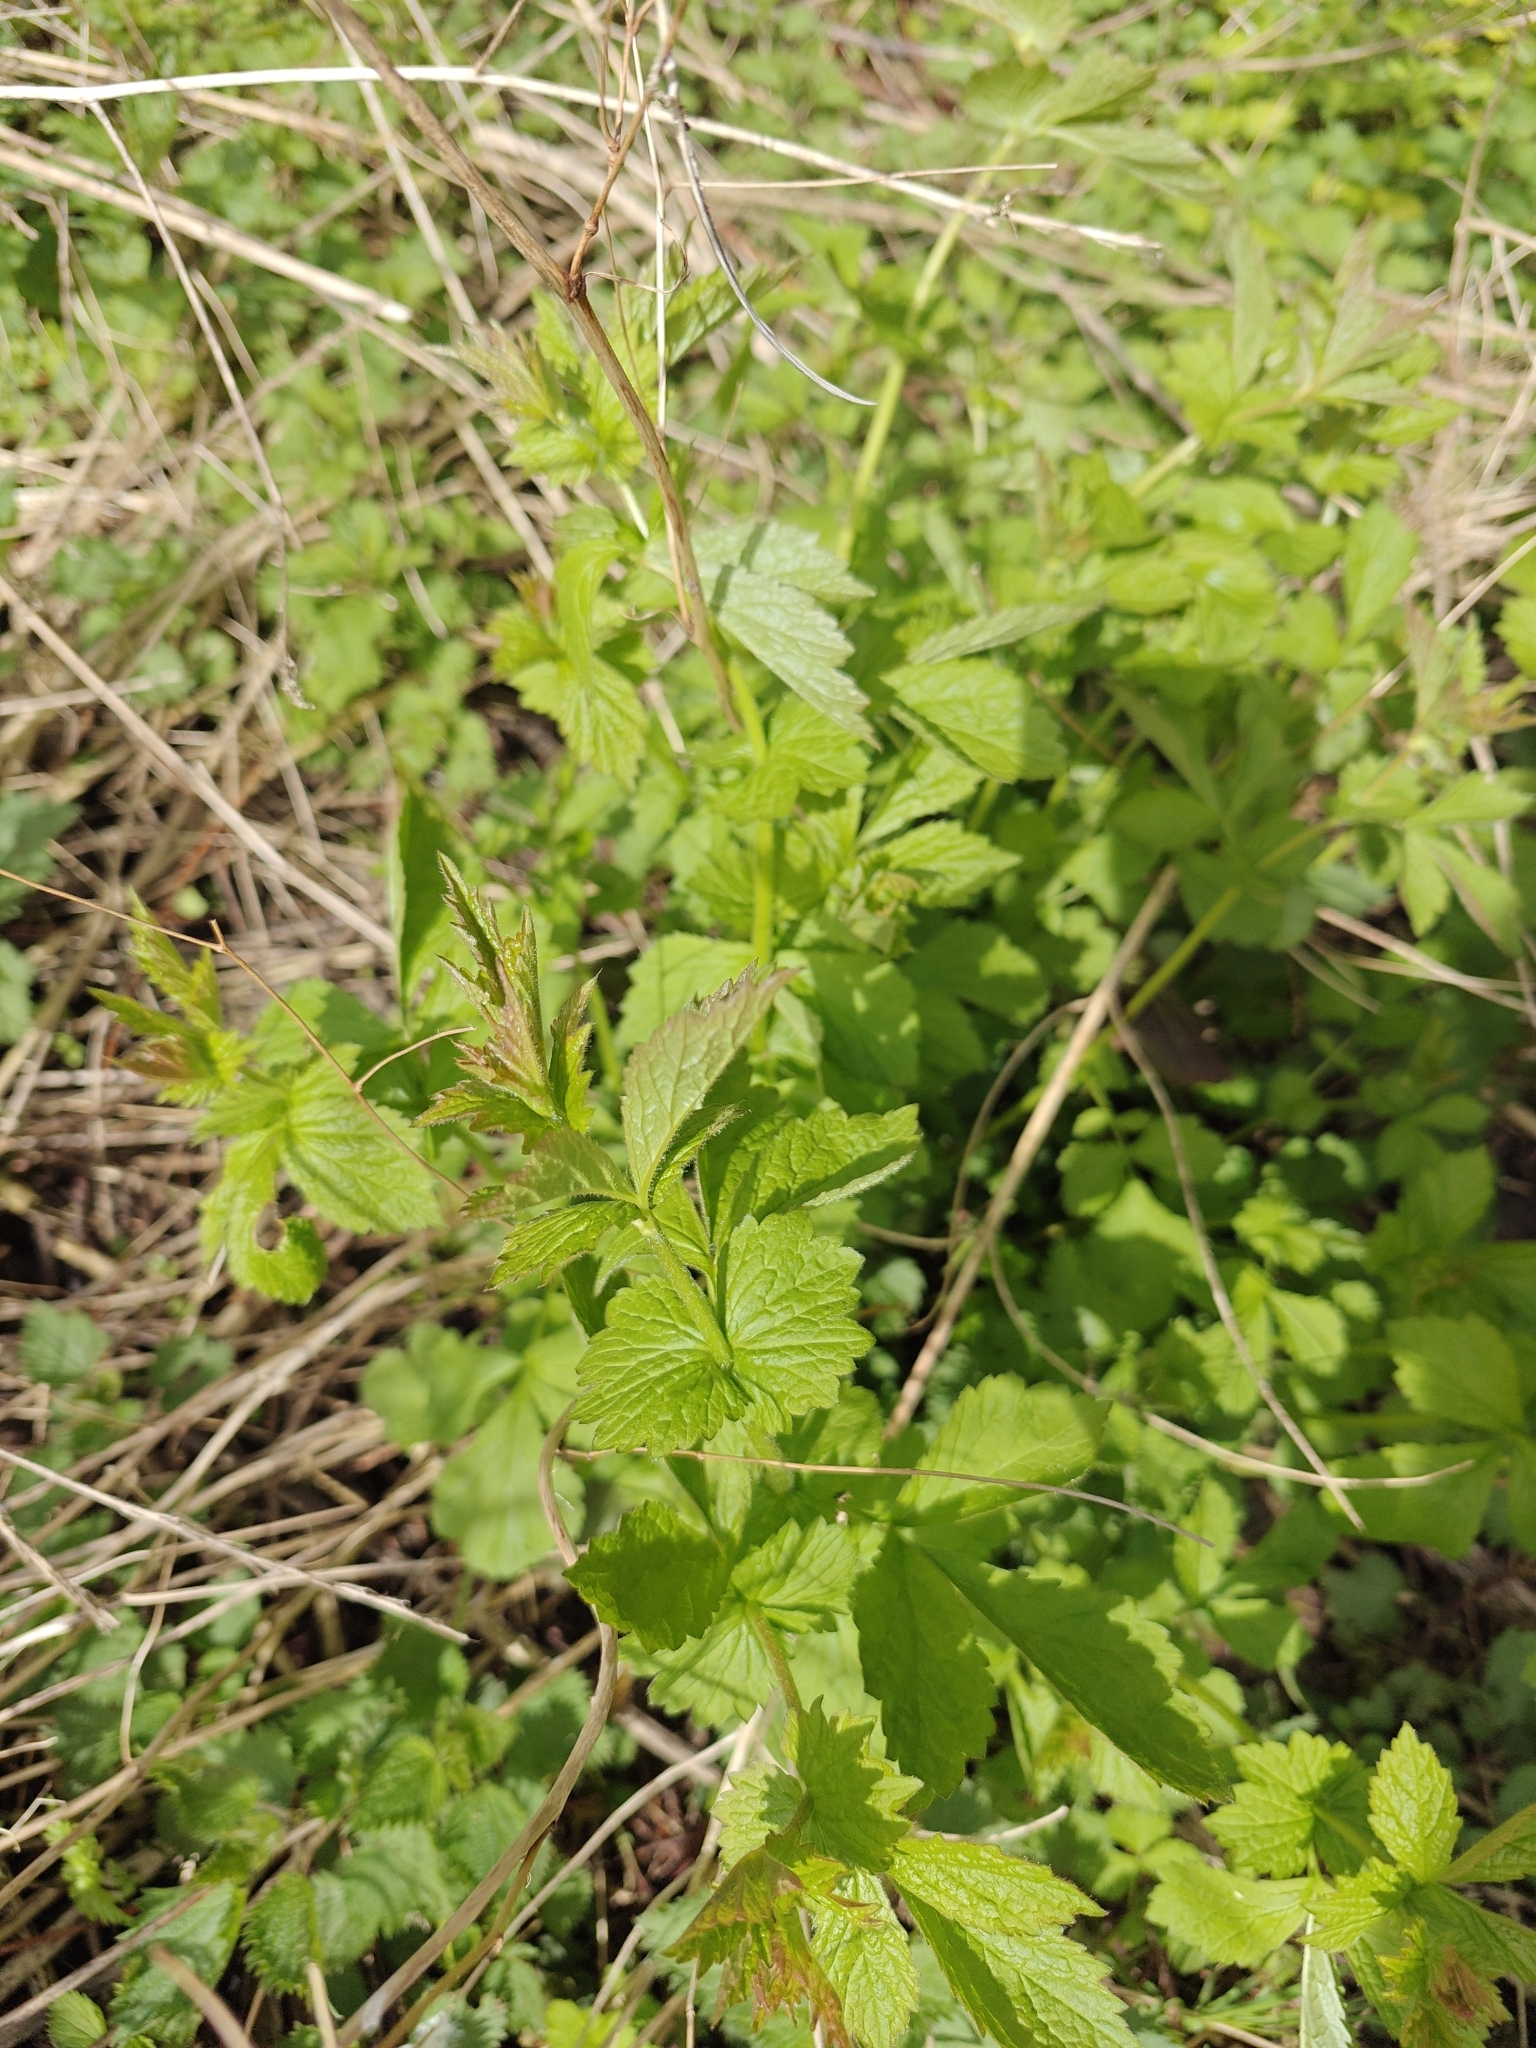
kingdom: Plantae
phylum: Tracheophyta
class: Magnoliopsida
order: Rosales
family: Rosaceae
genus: Geum
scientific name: Geum urbanum
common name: Wood avens
